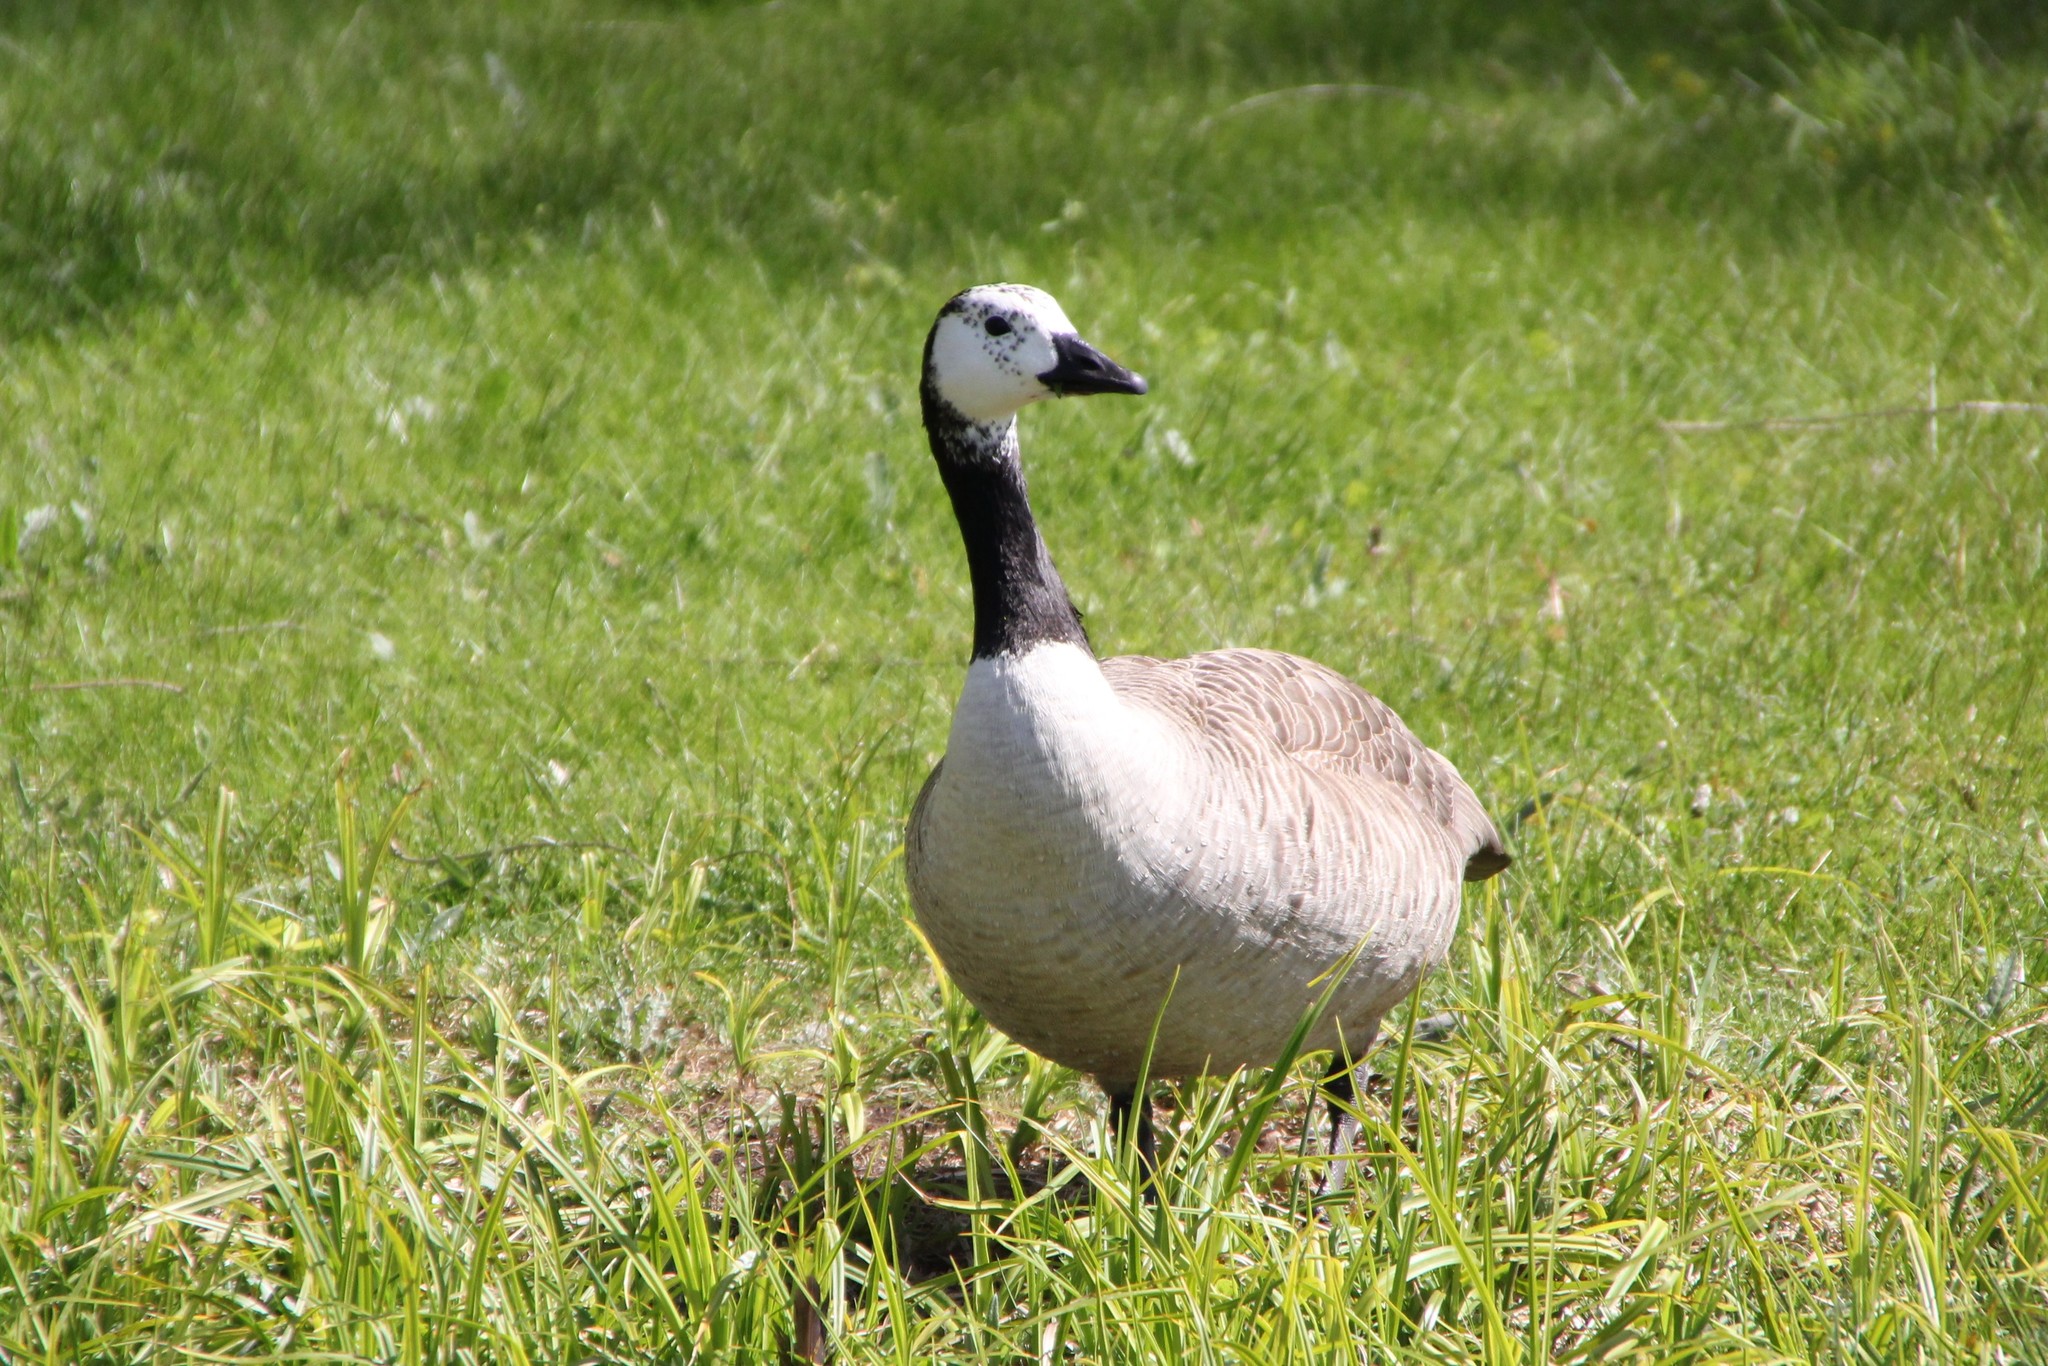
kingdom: Animalia
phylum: Chordata
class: Aves
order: Anseriformes
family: Anatidae
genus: Branta
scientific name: Branta leucopsis
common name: Barnacle goose
